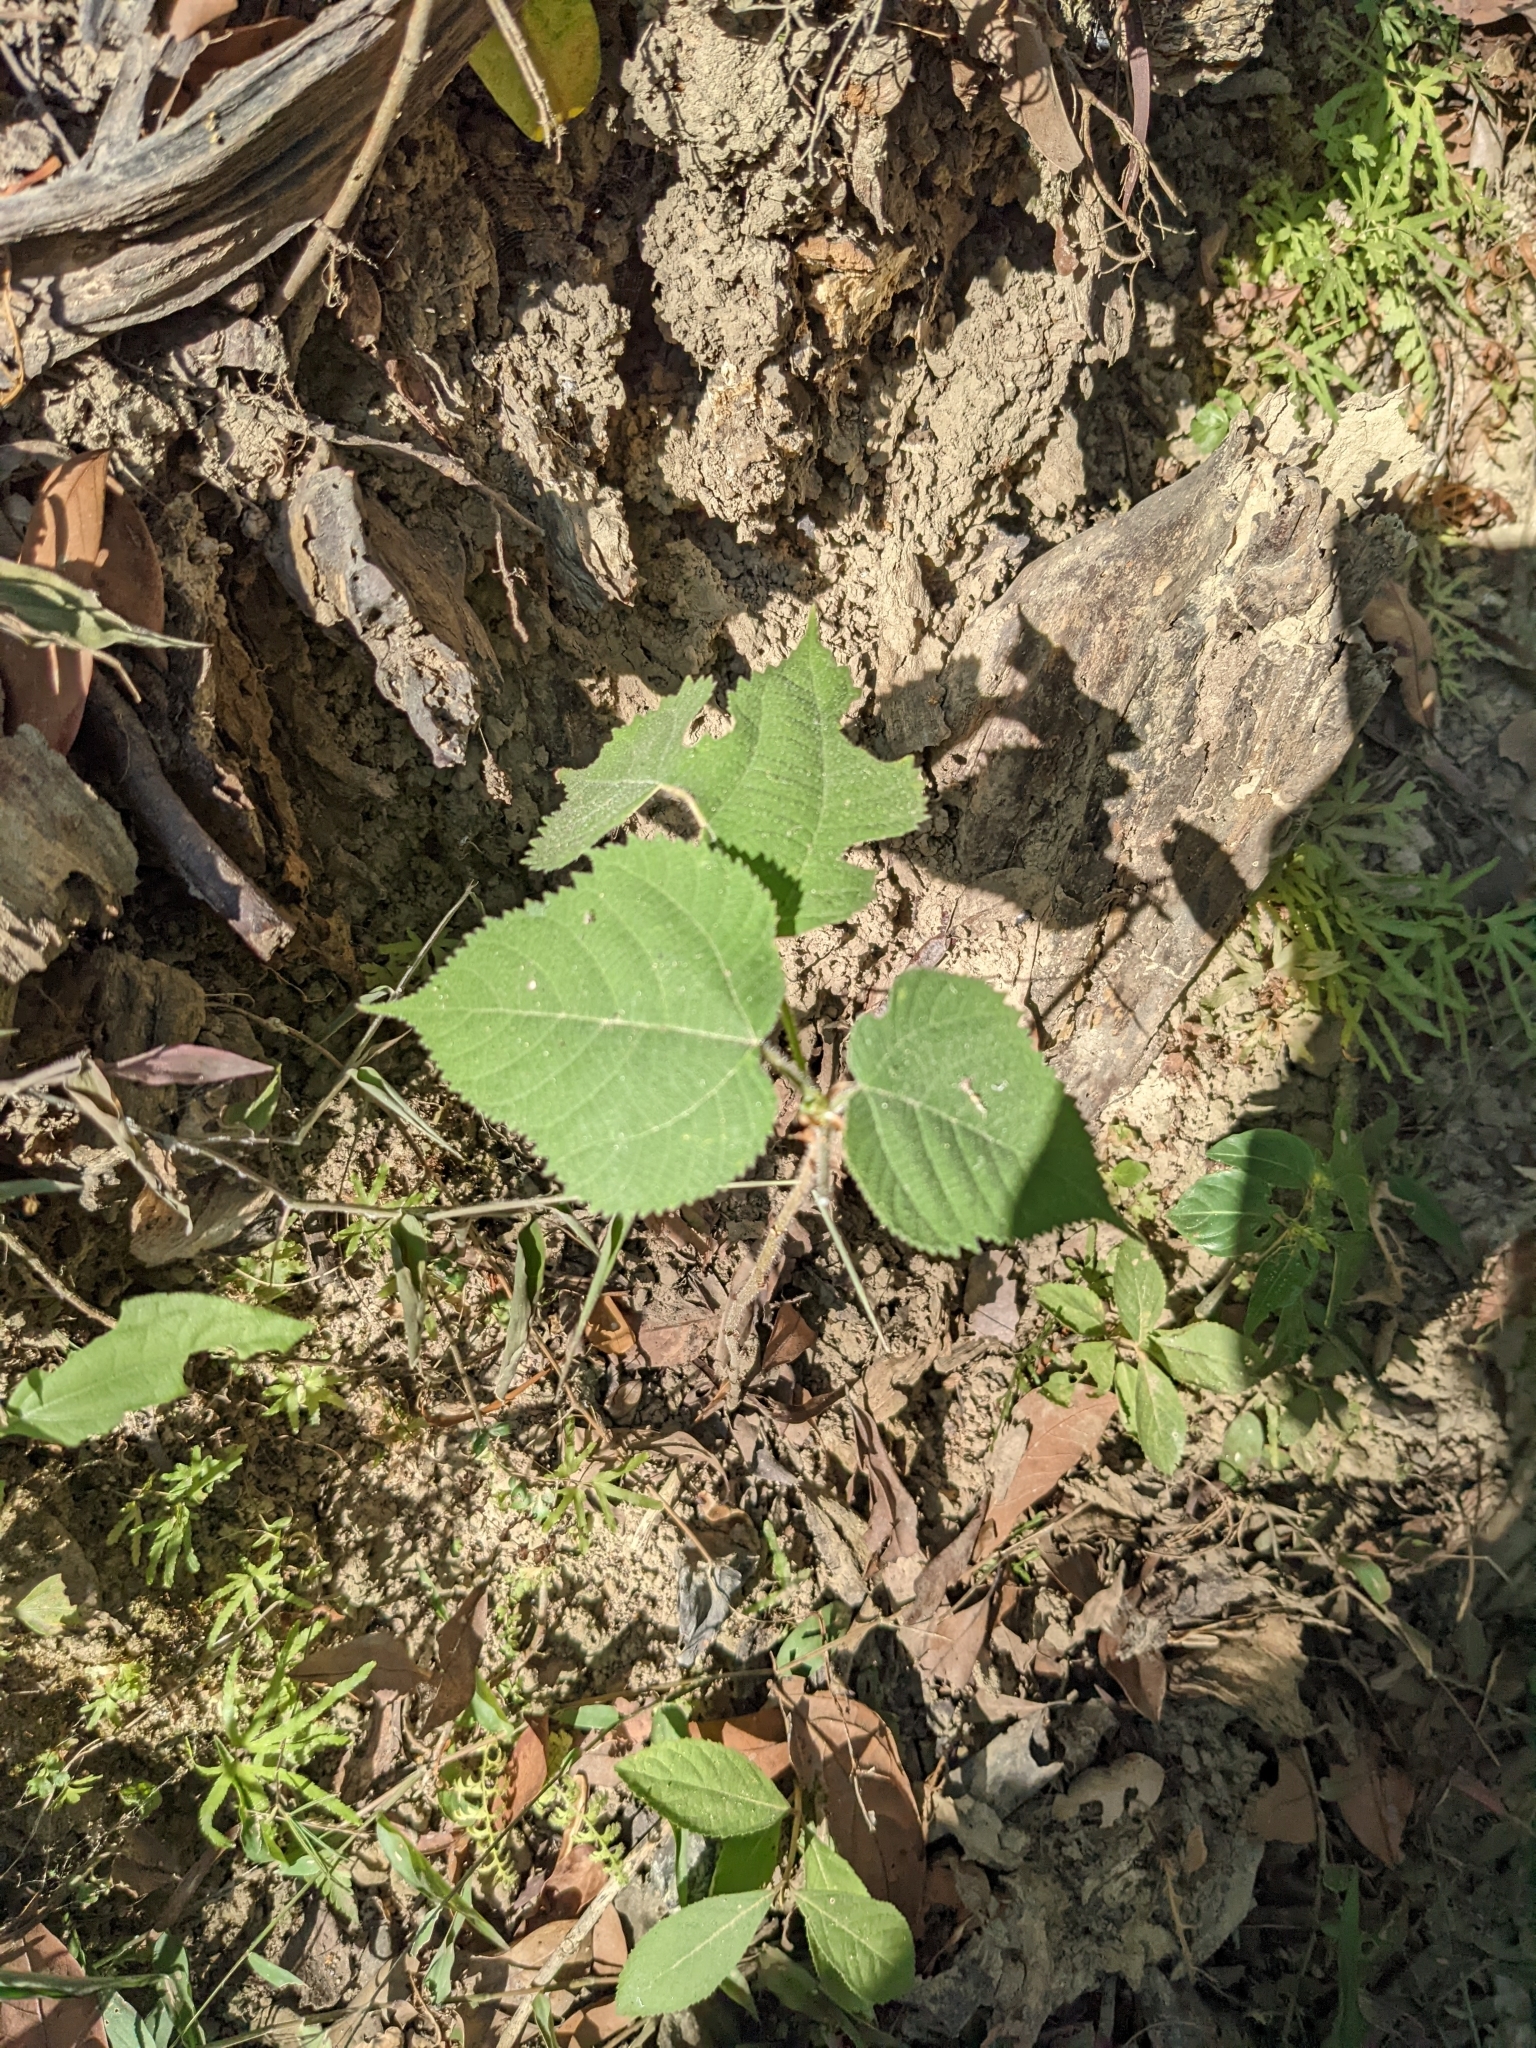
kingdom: Plantae
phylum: Tracheophyta
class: Magnoliopsida
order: Rosales
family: Moraceae
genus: Broussonetia
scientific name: Broussonetia papyrifera
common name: Paper mulberry
